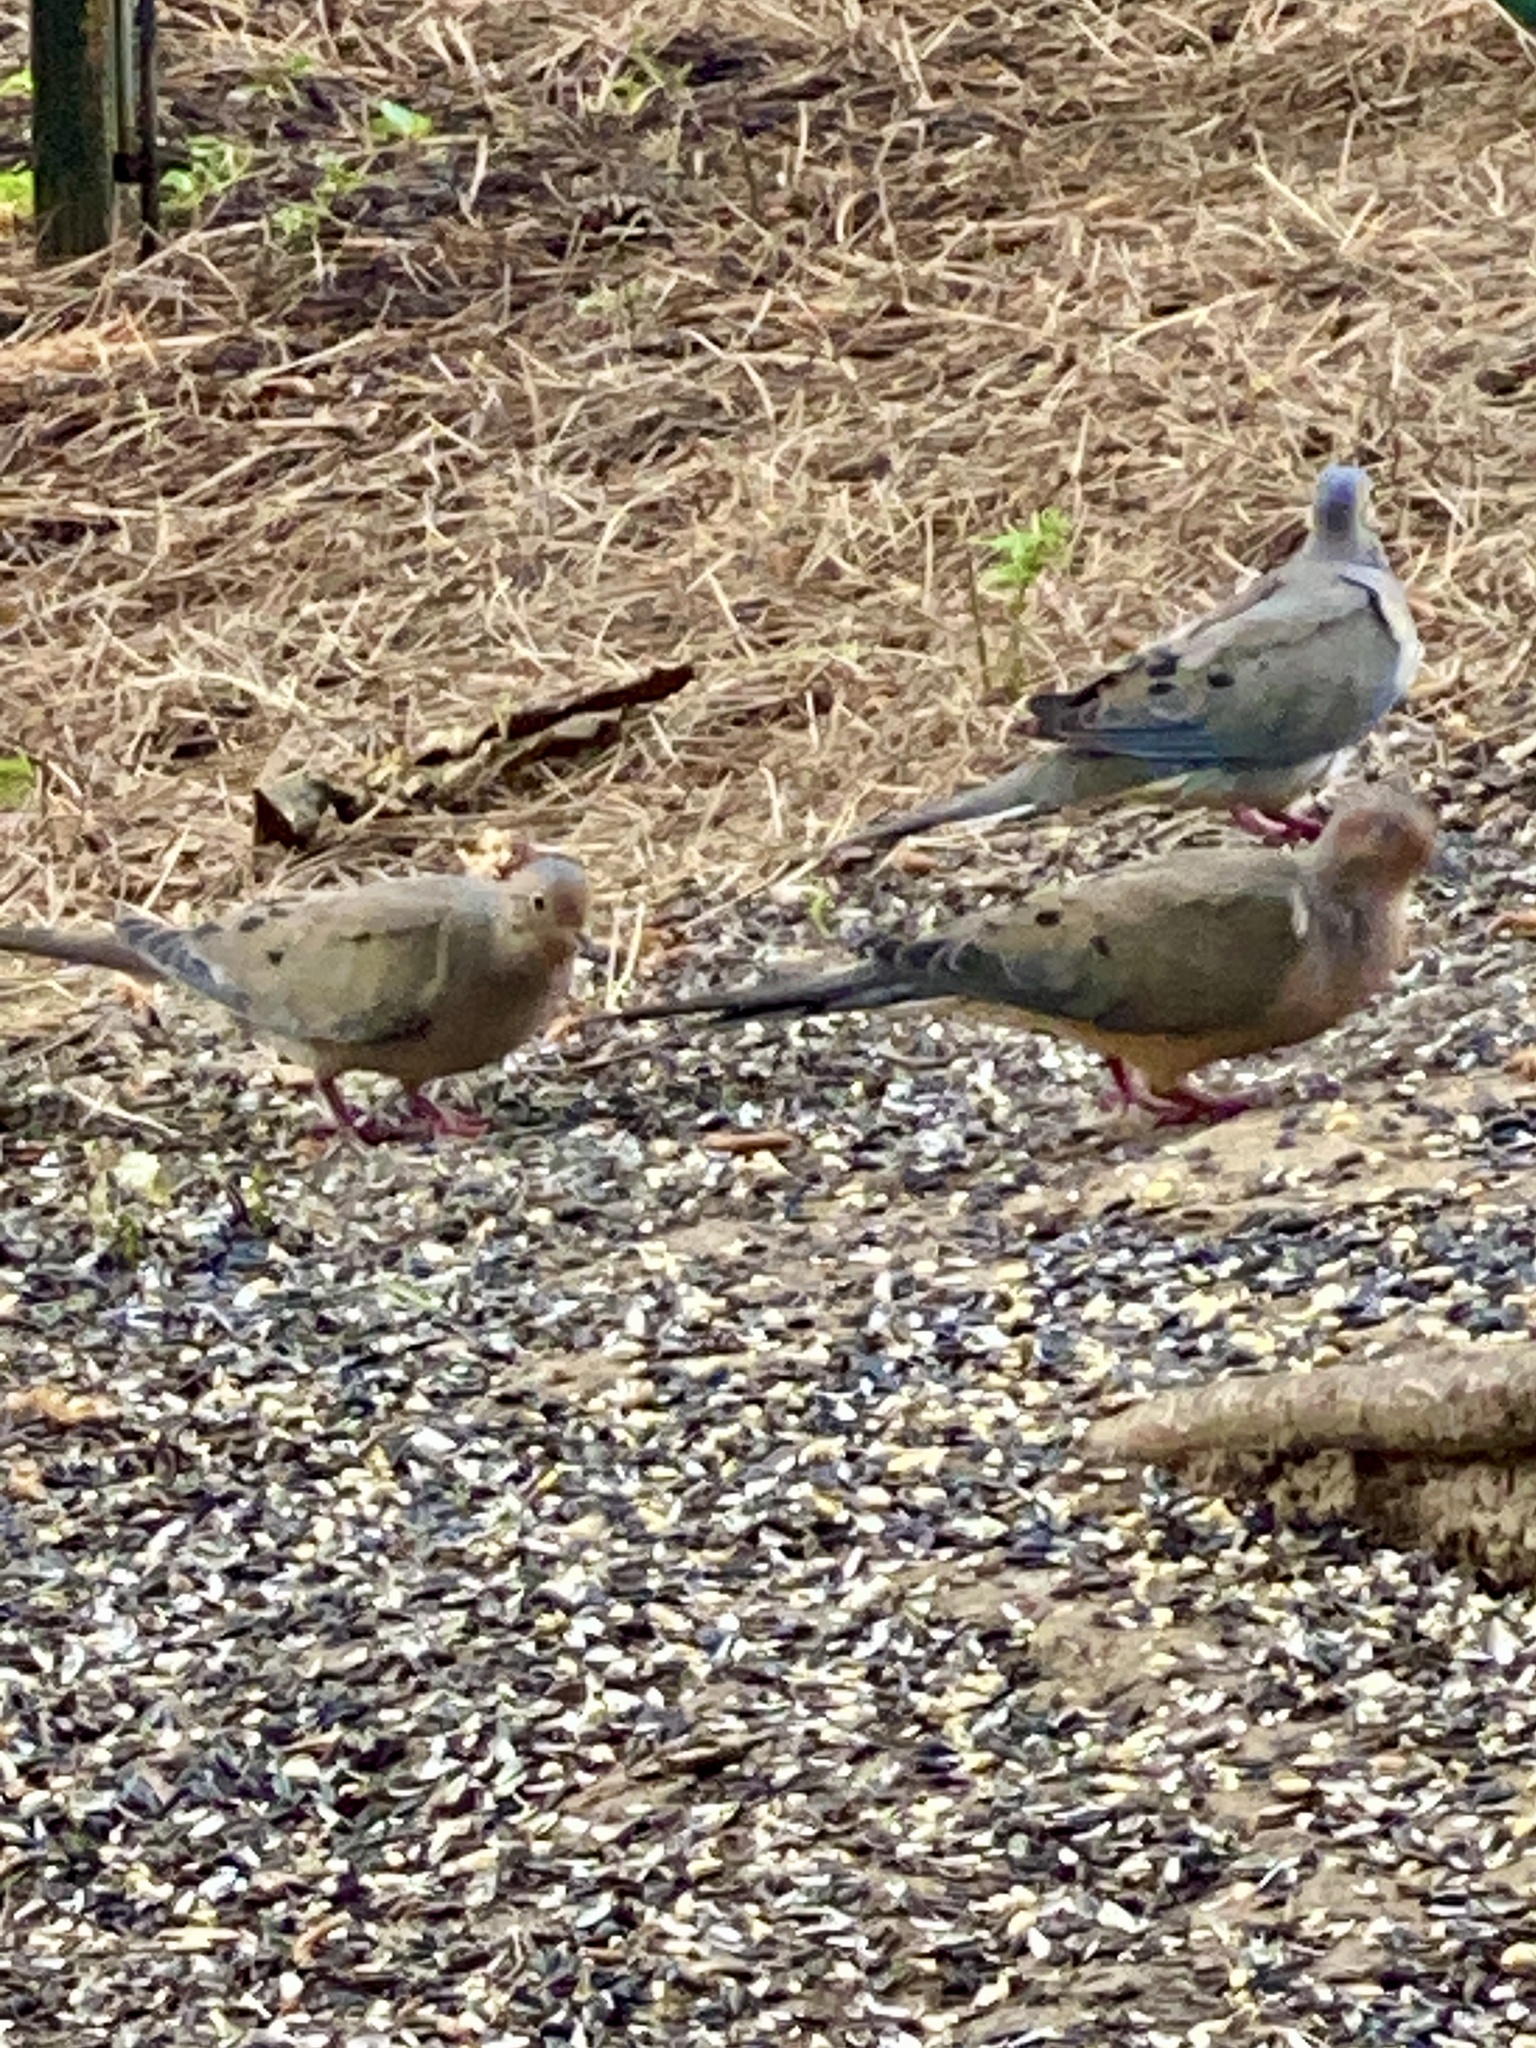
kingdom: Animalia
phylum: Chordata
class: Aves
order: Columbiformes
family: Columbidae
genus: Zenaida
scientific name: Zenaida macroura
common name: Mourning dove
